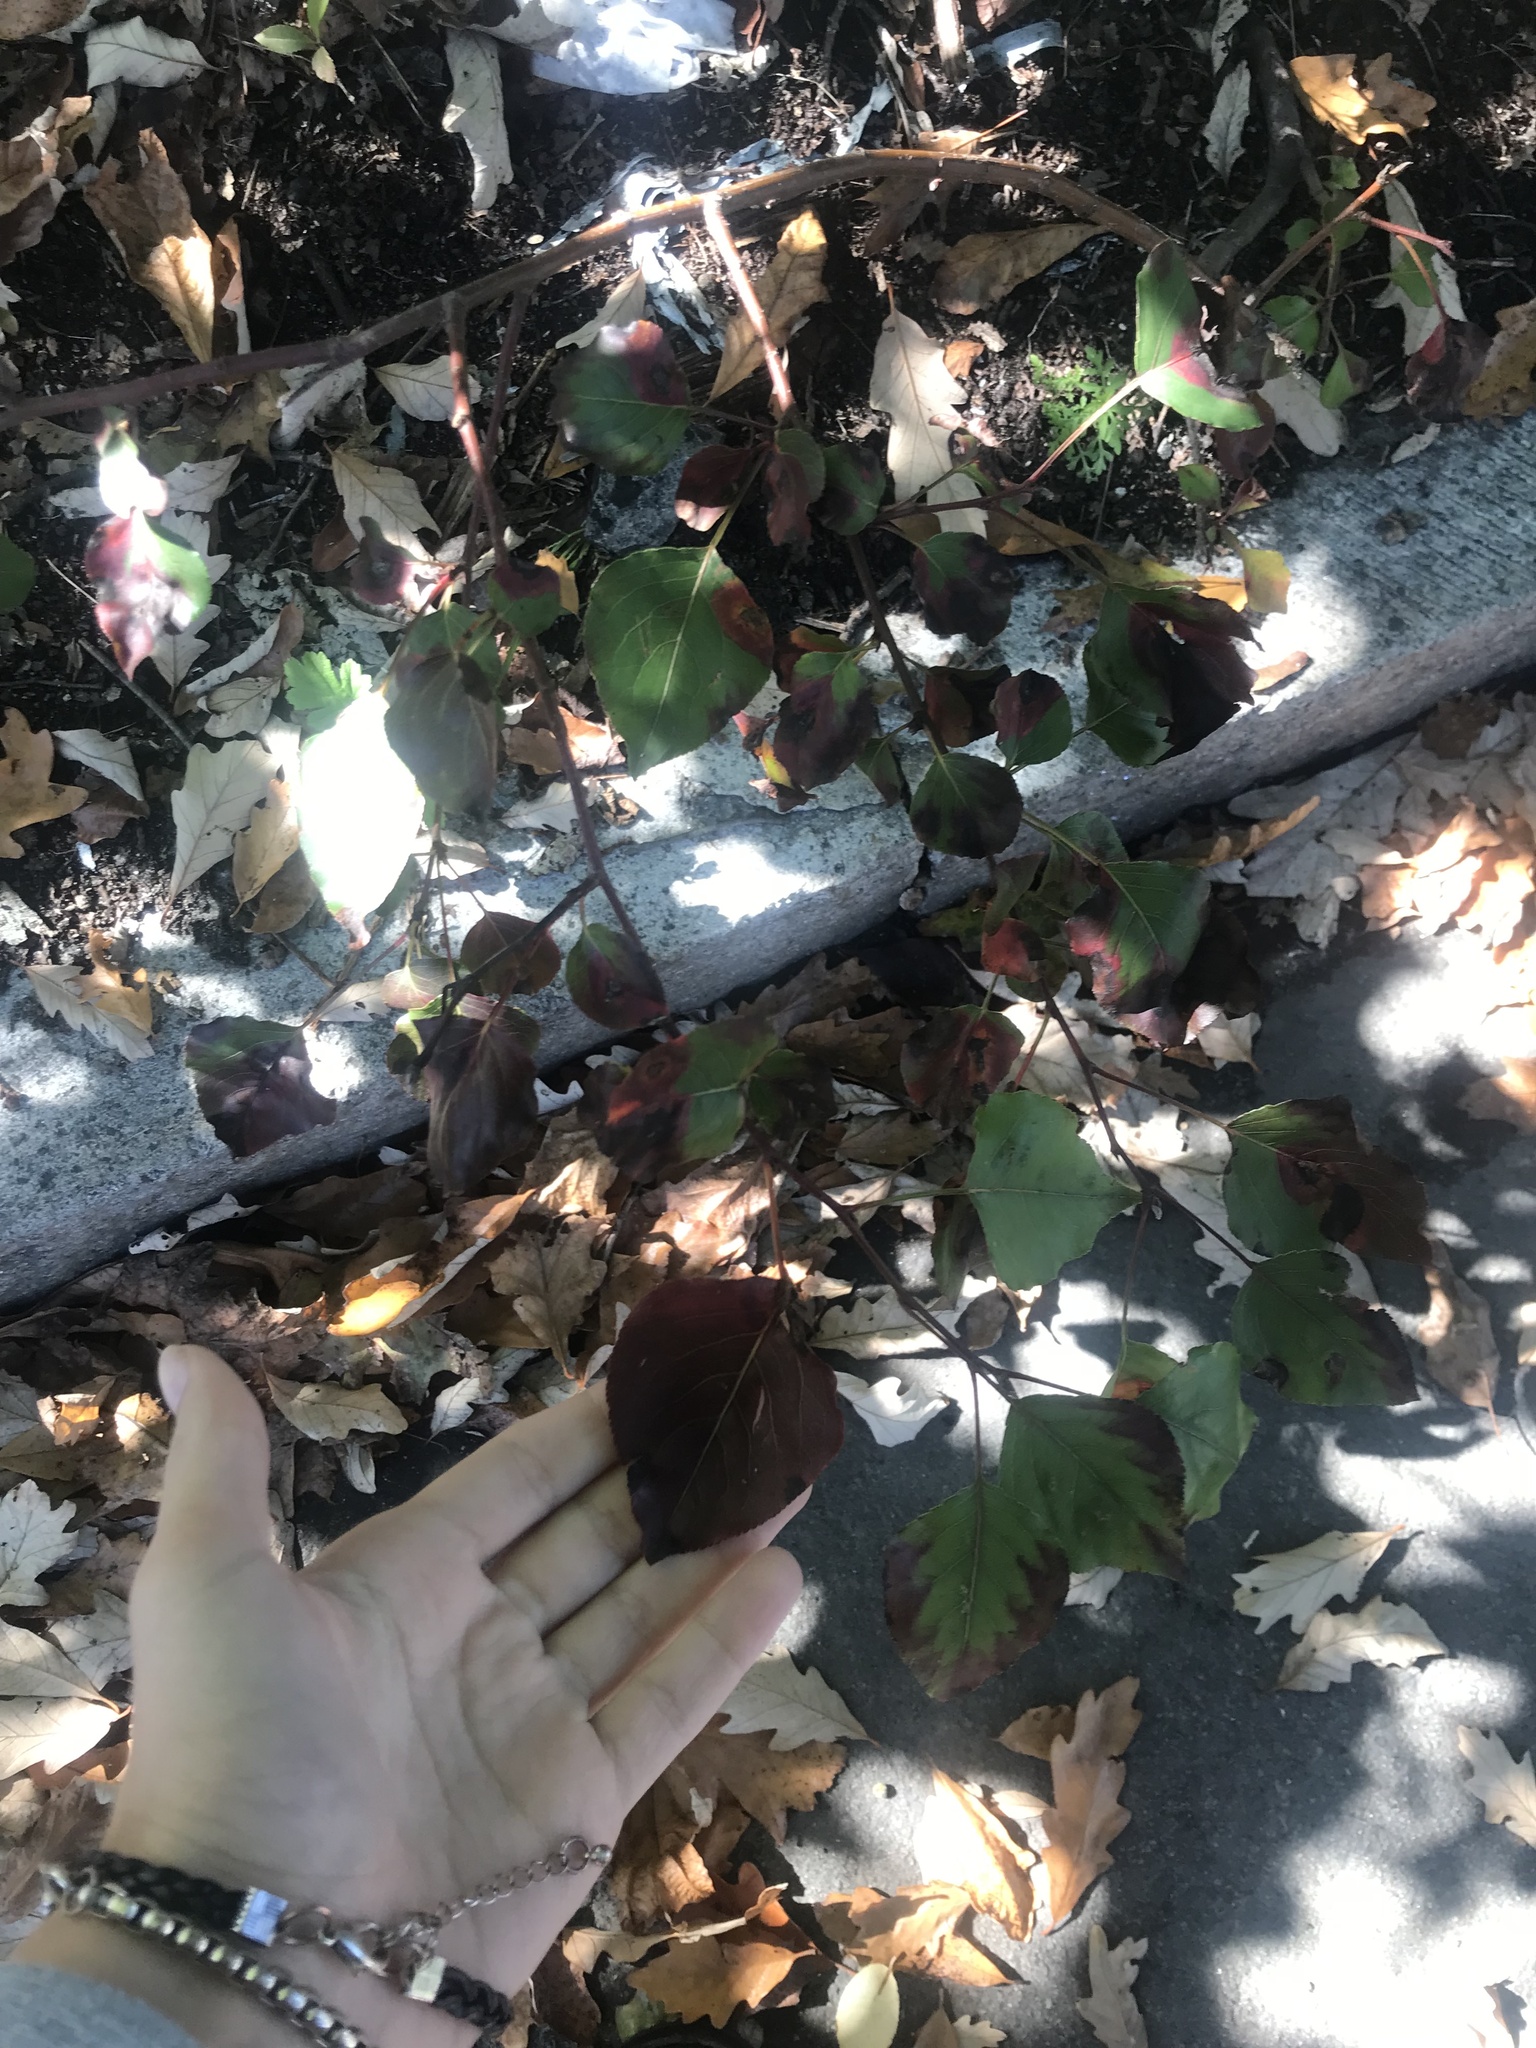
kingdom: Plantae
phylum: Tracheophyta
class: Magnoliopsida
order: Rosales
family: Rosaceae
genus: Pyrus
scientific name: Pyrus calleryana
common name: Callery pear
